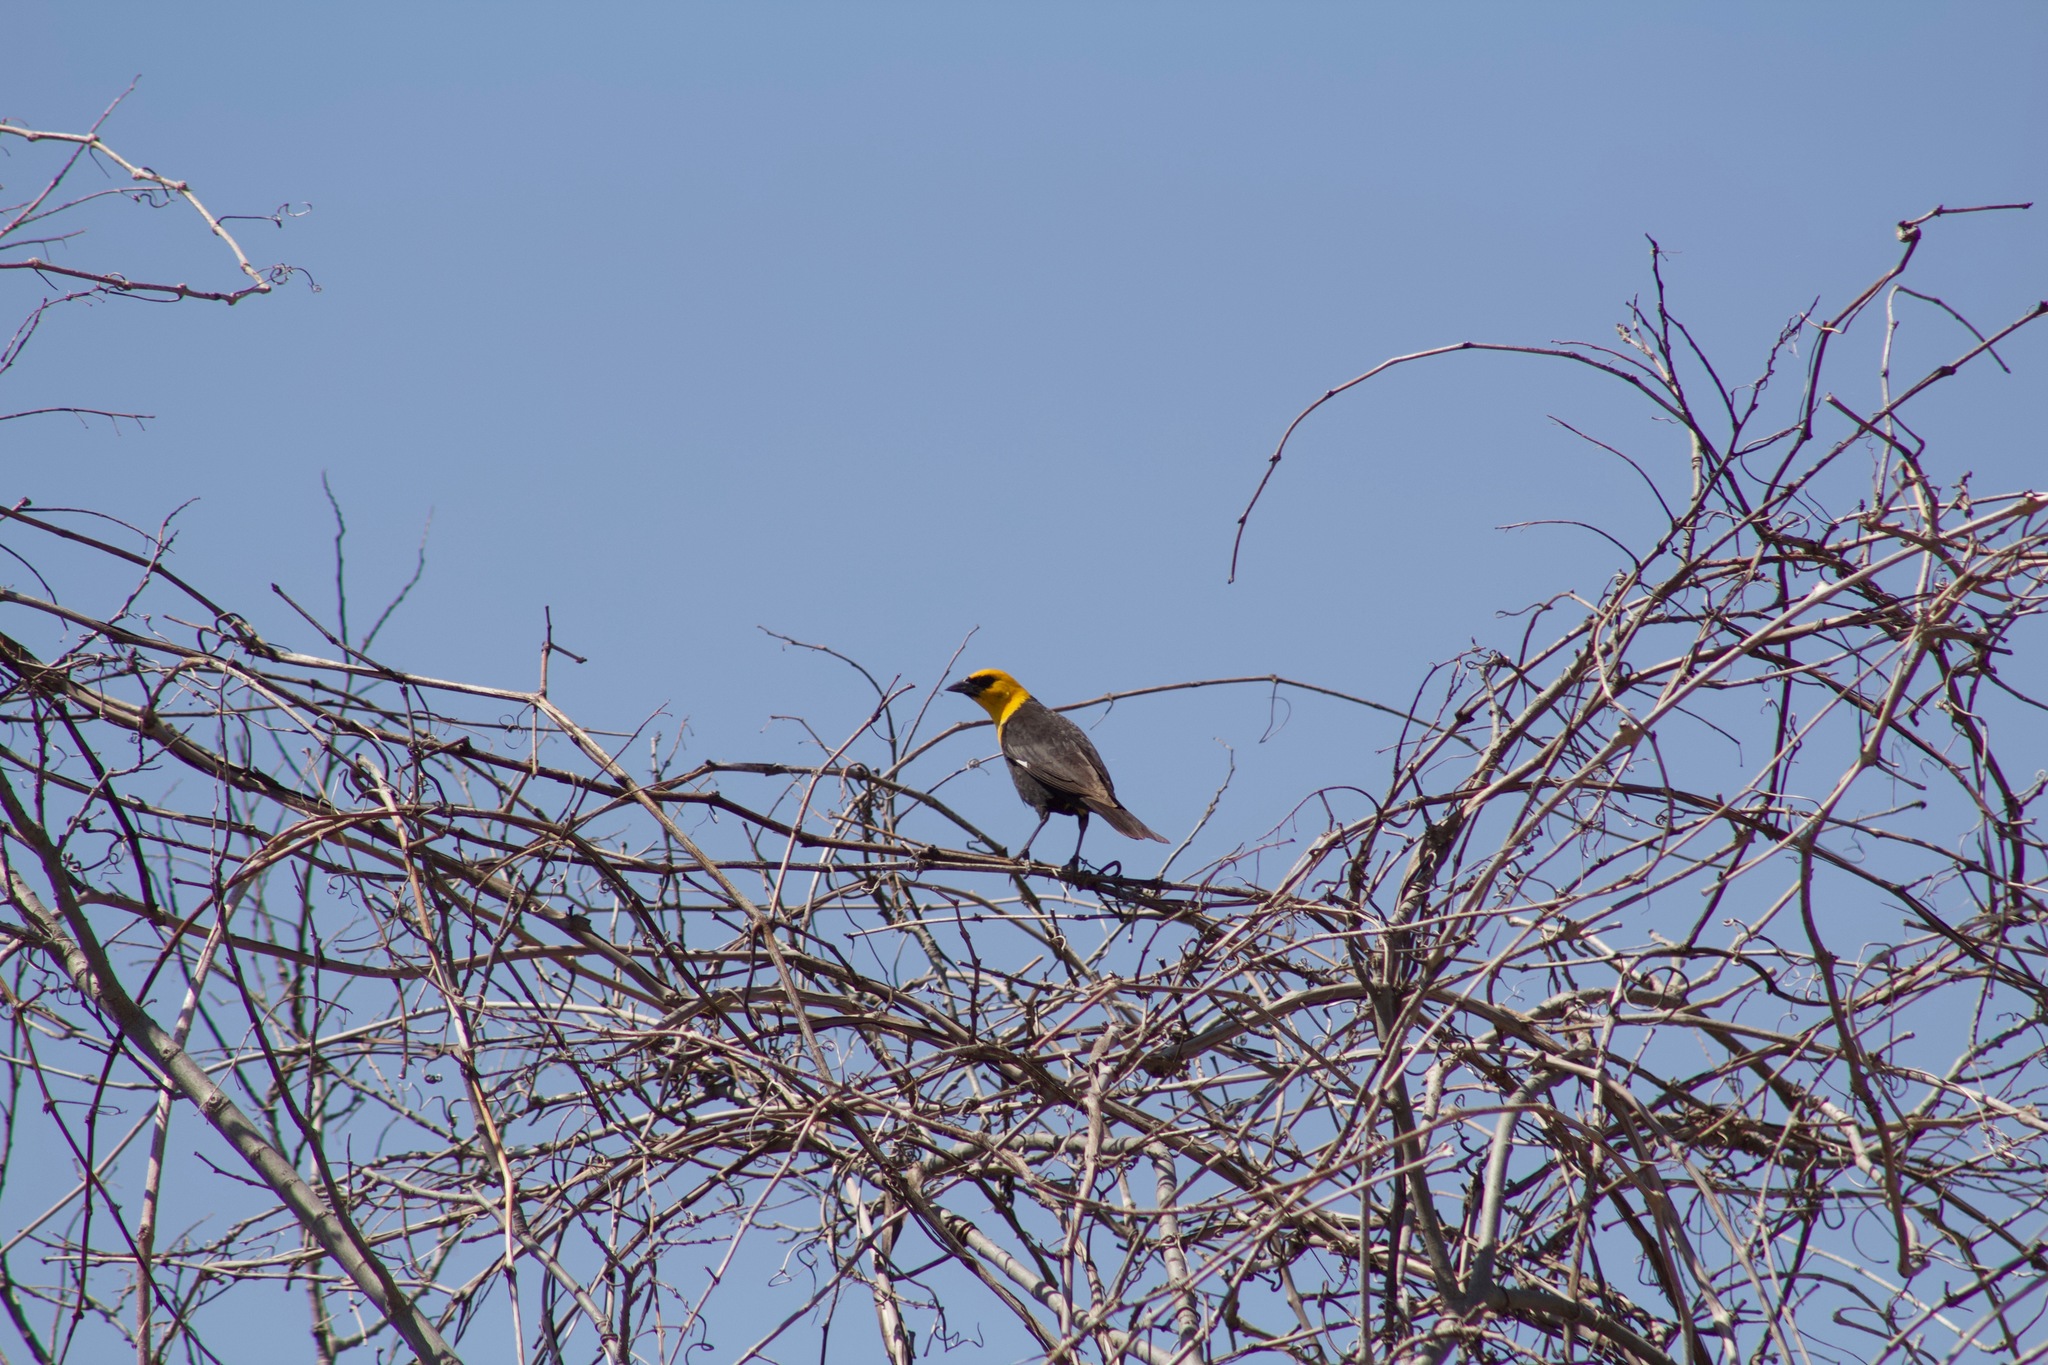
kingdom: Animalia
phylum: Chordata
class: Aves
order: Passeriformes
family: Icteridae
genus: Xanthocephalus
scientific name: Xanthocephalus xanthocephalus
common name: Yellow-headed blackbird
